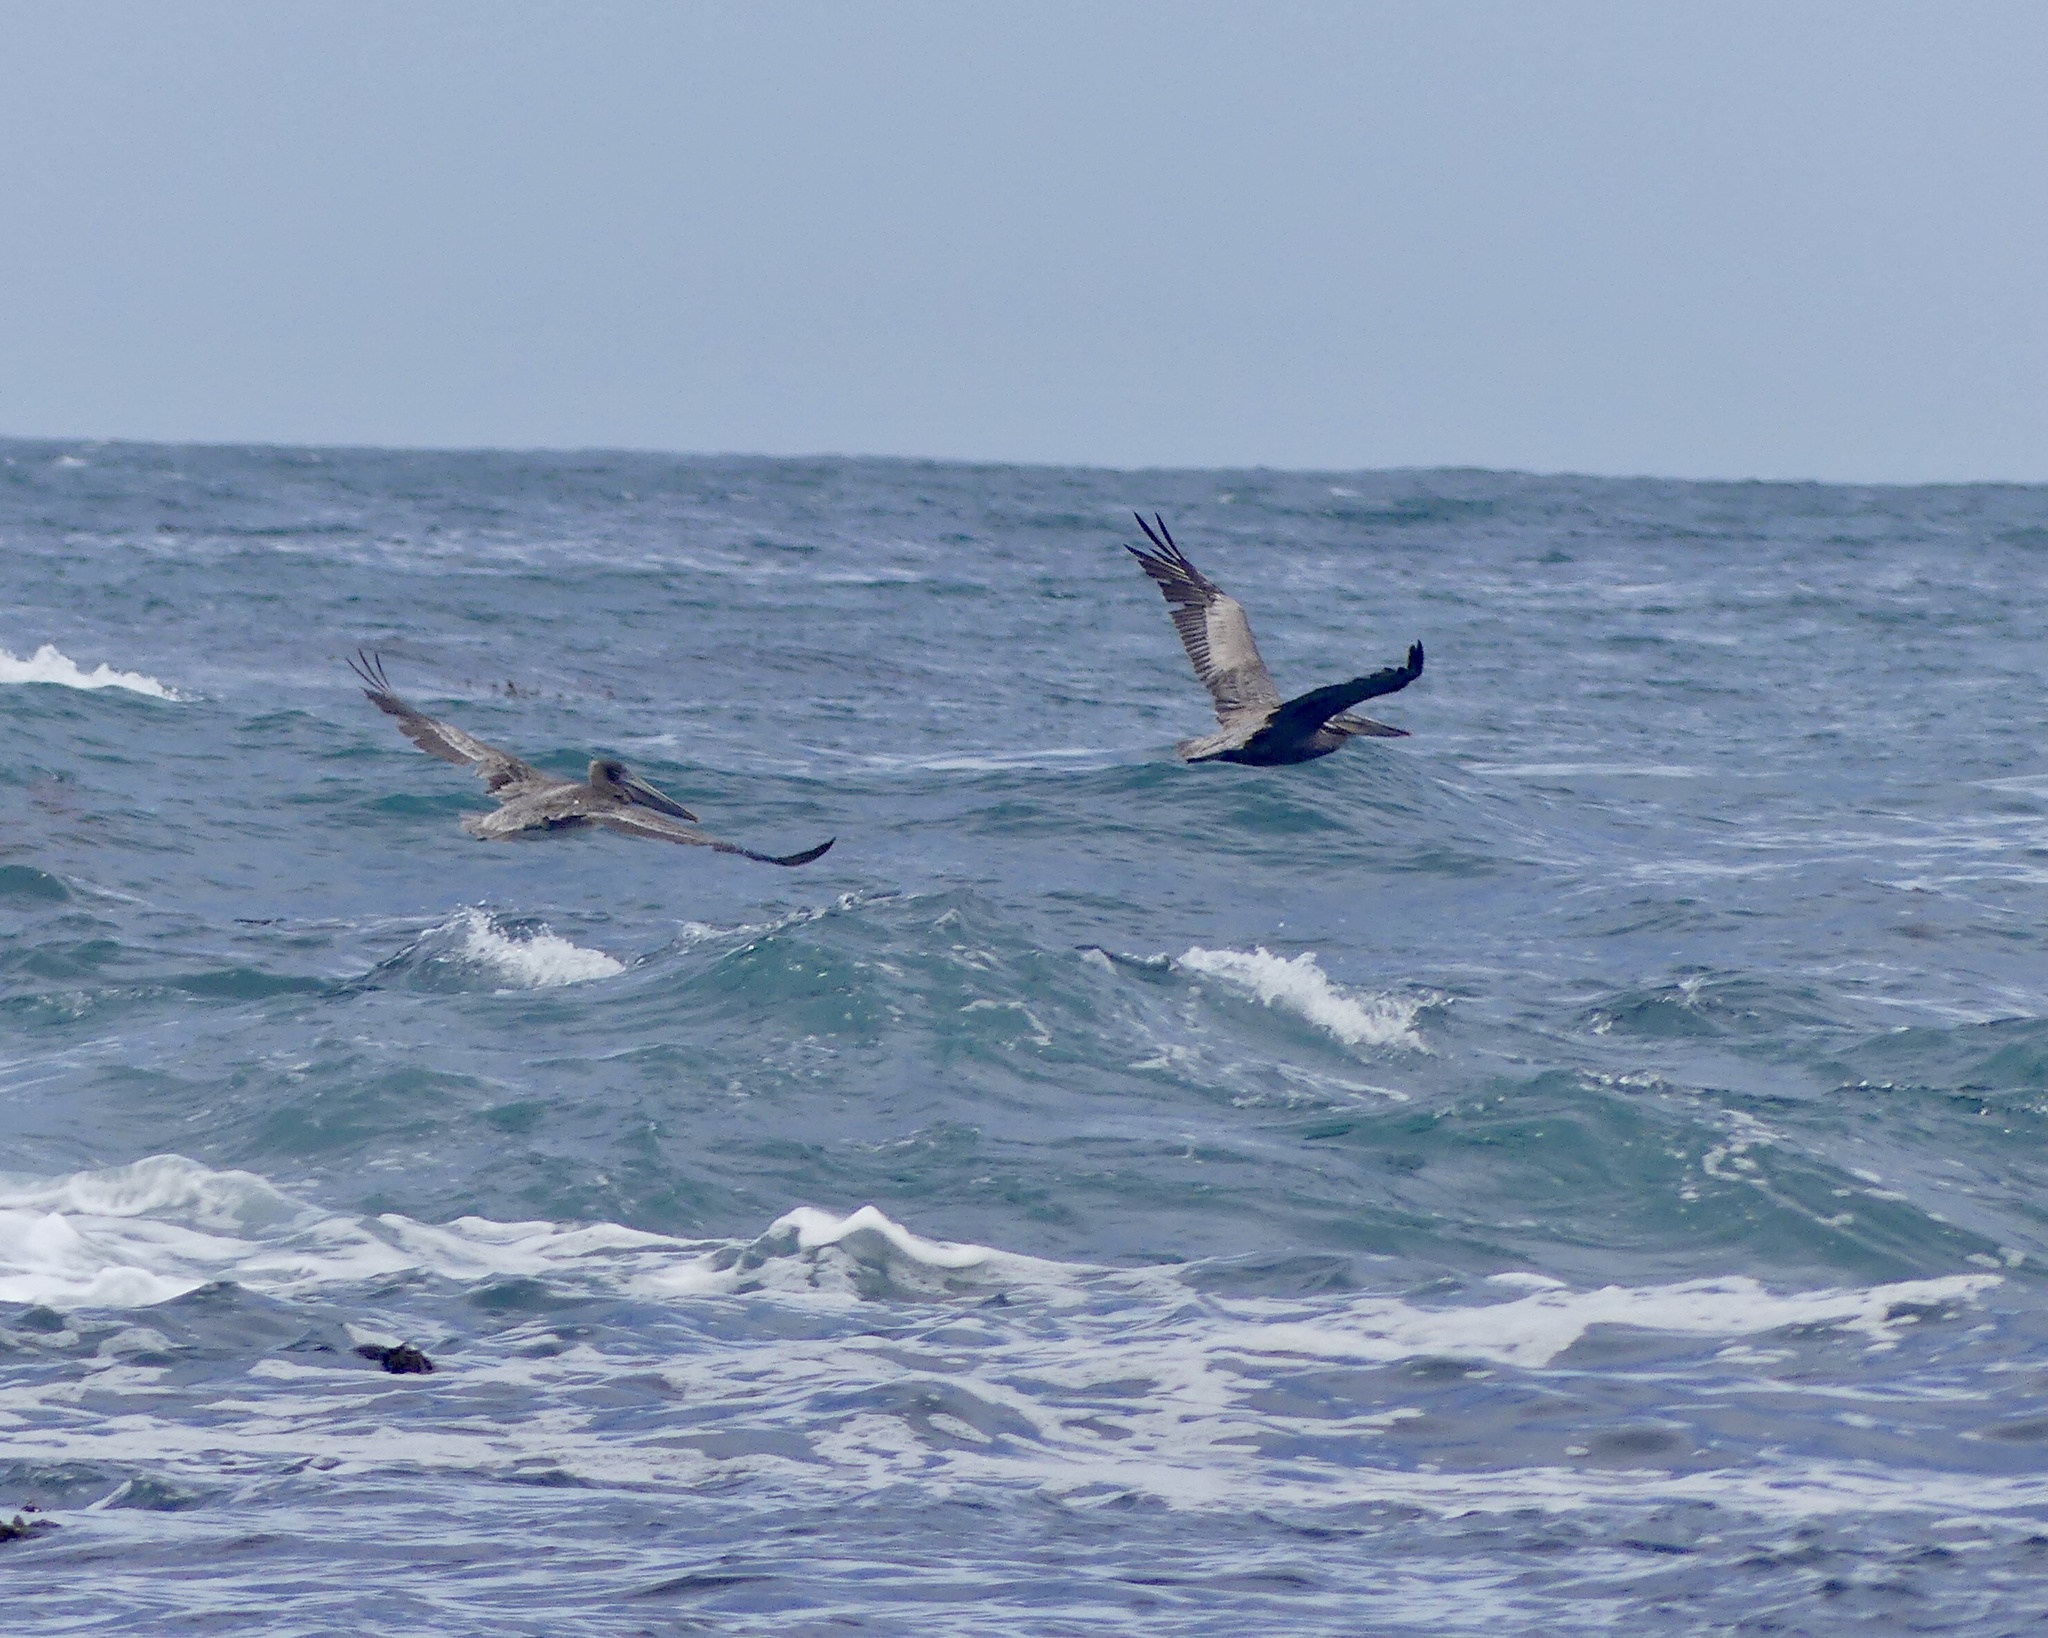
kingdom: Animalia
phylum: Chordata
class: Aves
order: Pelecaniformes
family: Pelecanidae
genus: Pelecanus
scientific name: Pelecanus occidentalis
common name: Brown pelican
